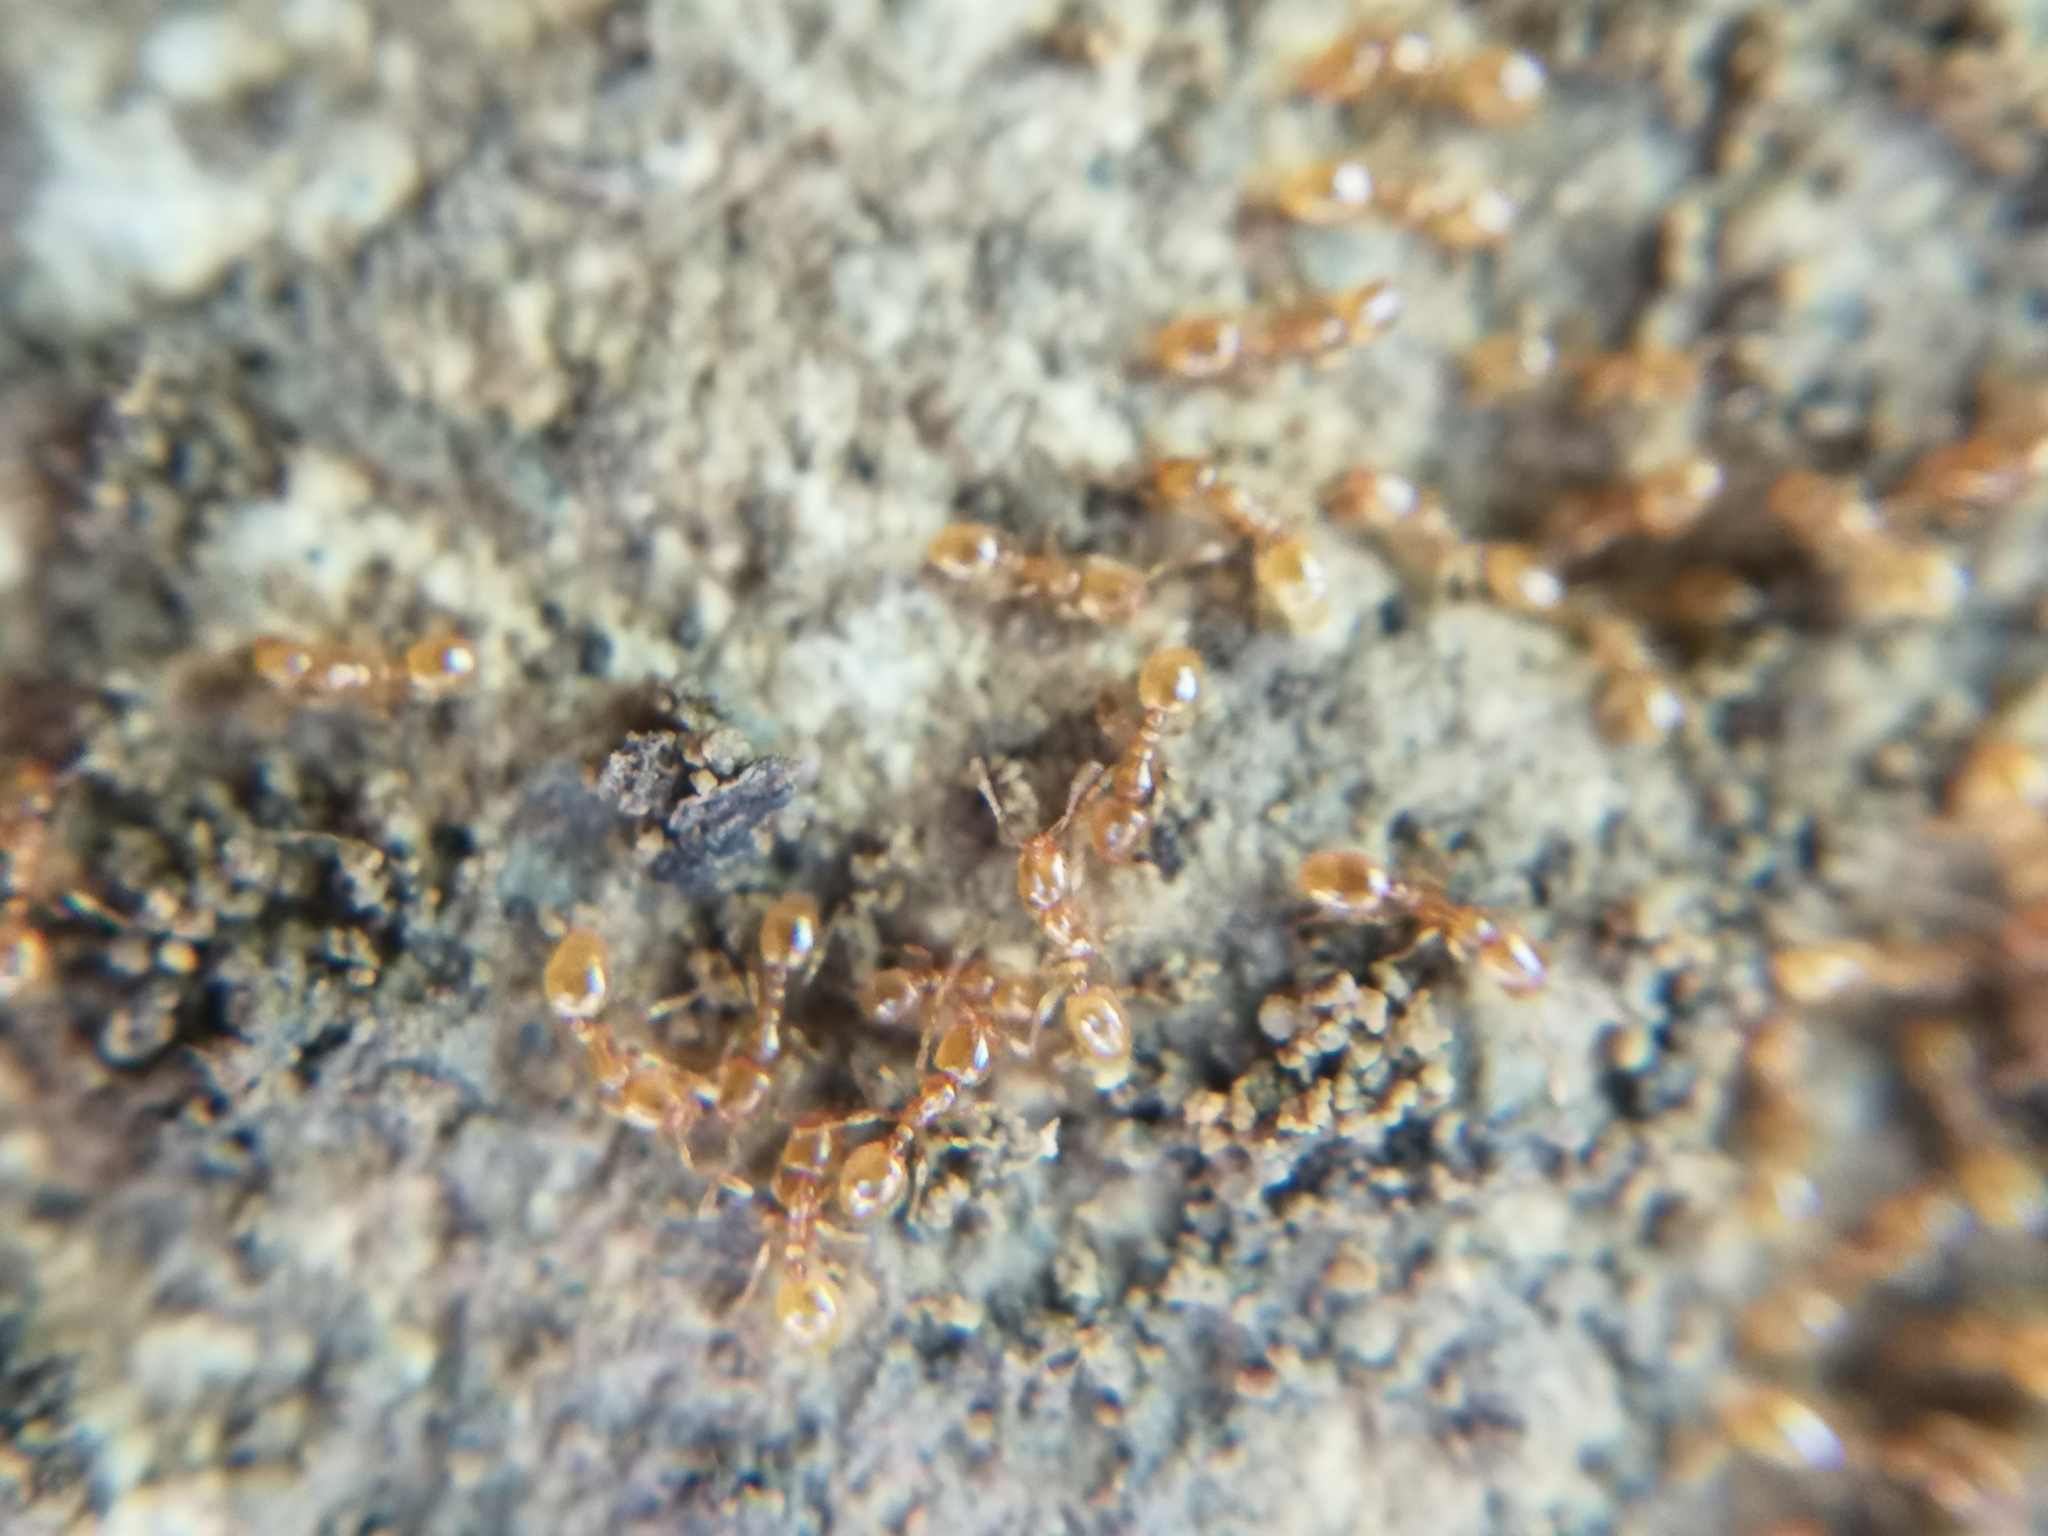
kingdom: Animalia
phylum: Arthropoda
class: Insecta
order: Hymenoptera
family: Formicidae
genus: Solenopsis
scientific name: Solenopsis fugax
